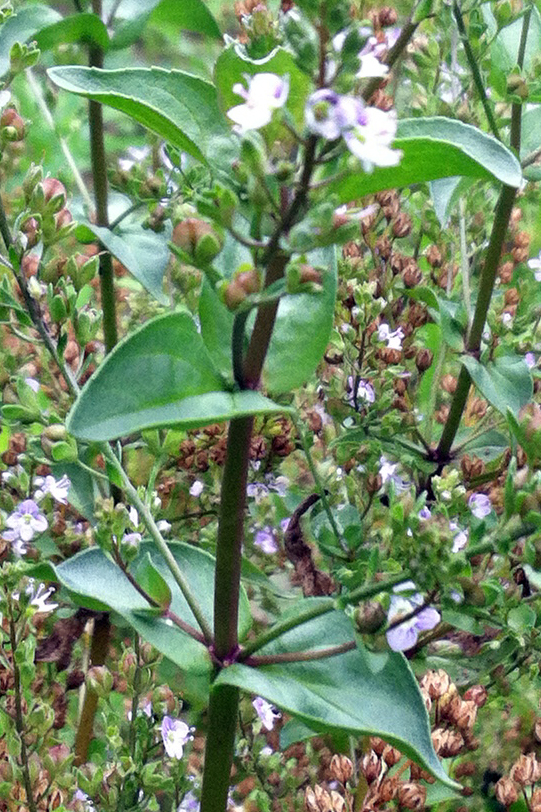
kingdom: Plantae
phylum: Tracheophyta
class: Magnoliopsida
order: Lamiales
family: Plantaginaceae
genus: Veronica
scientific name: Veronica anagallis-aquatica
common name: Water speedwell
